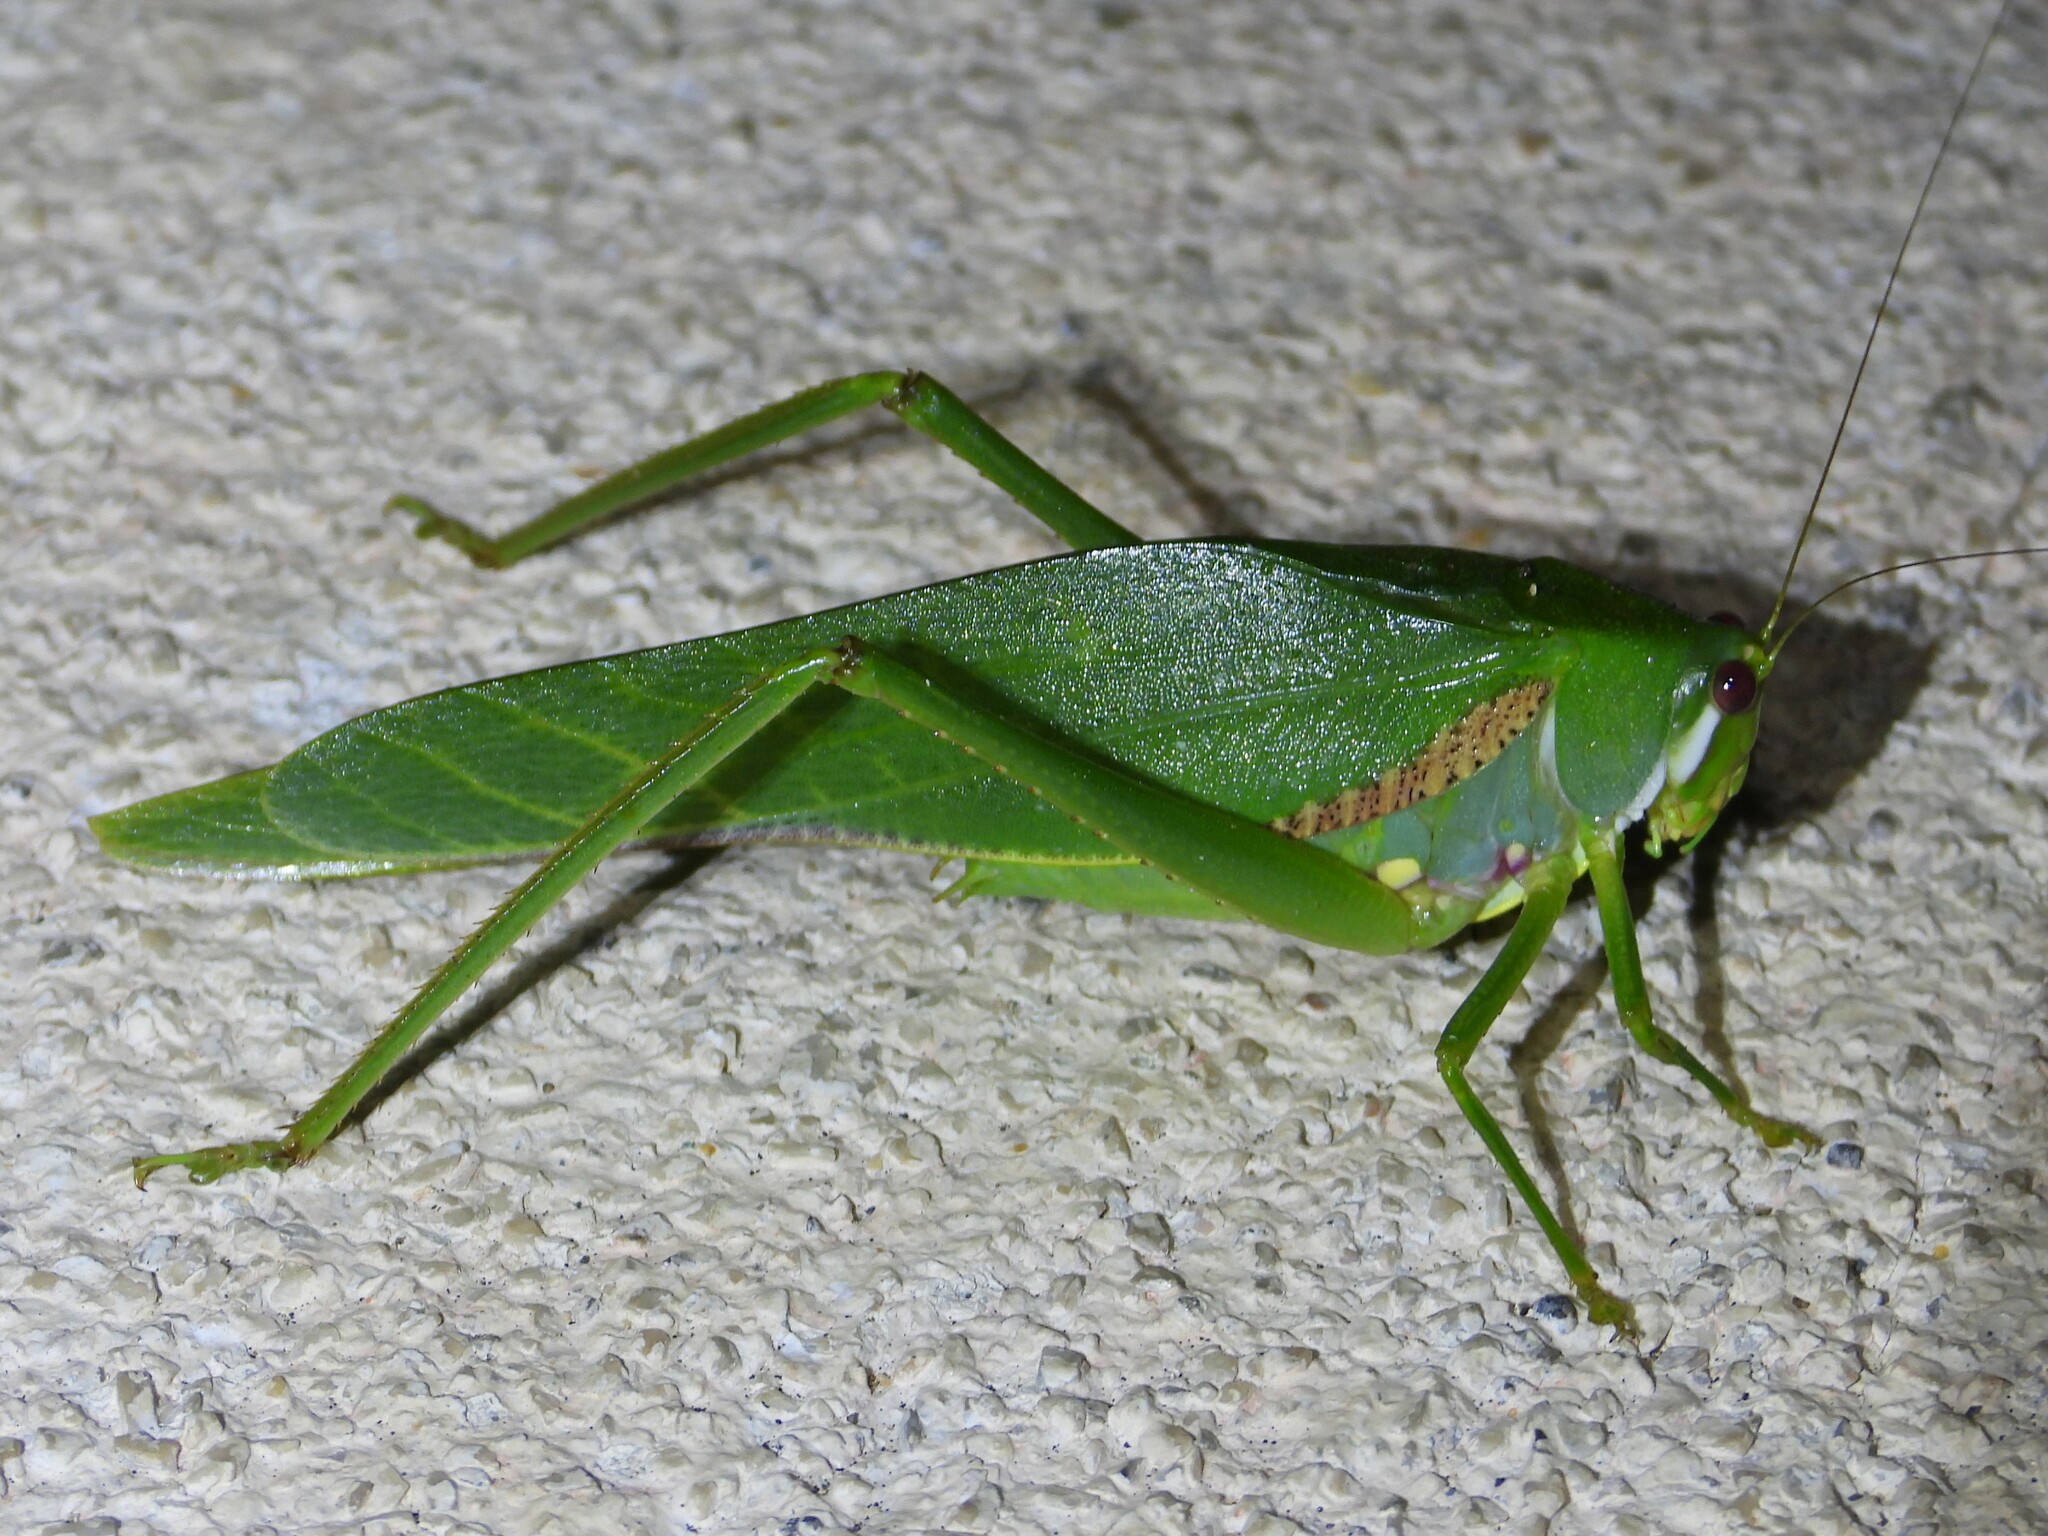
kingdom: Animalia
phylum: Arthropoda
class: Insecta
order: Orthoptera
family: Tettigoniidae
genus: Philophyllia
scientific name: Philophyllia guttulata
